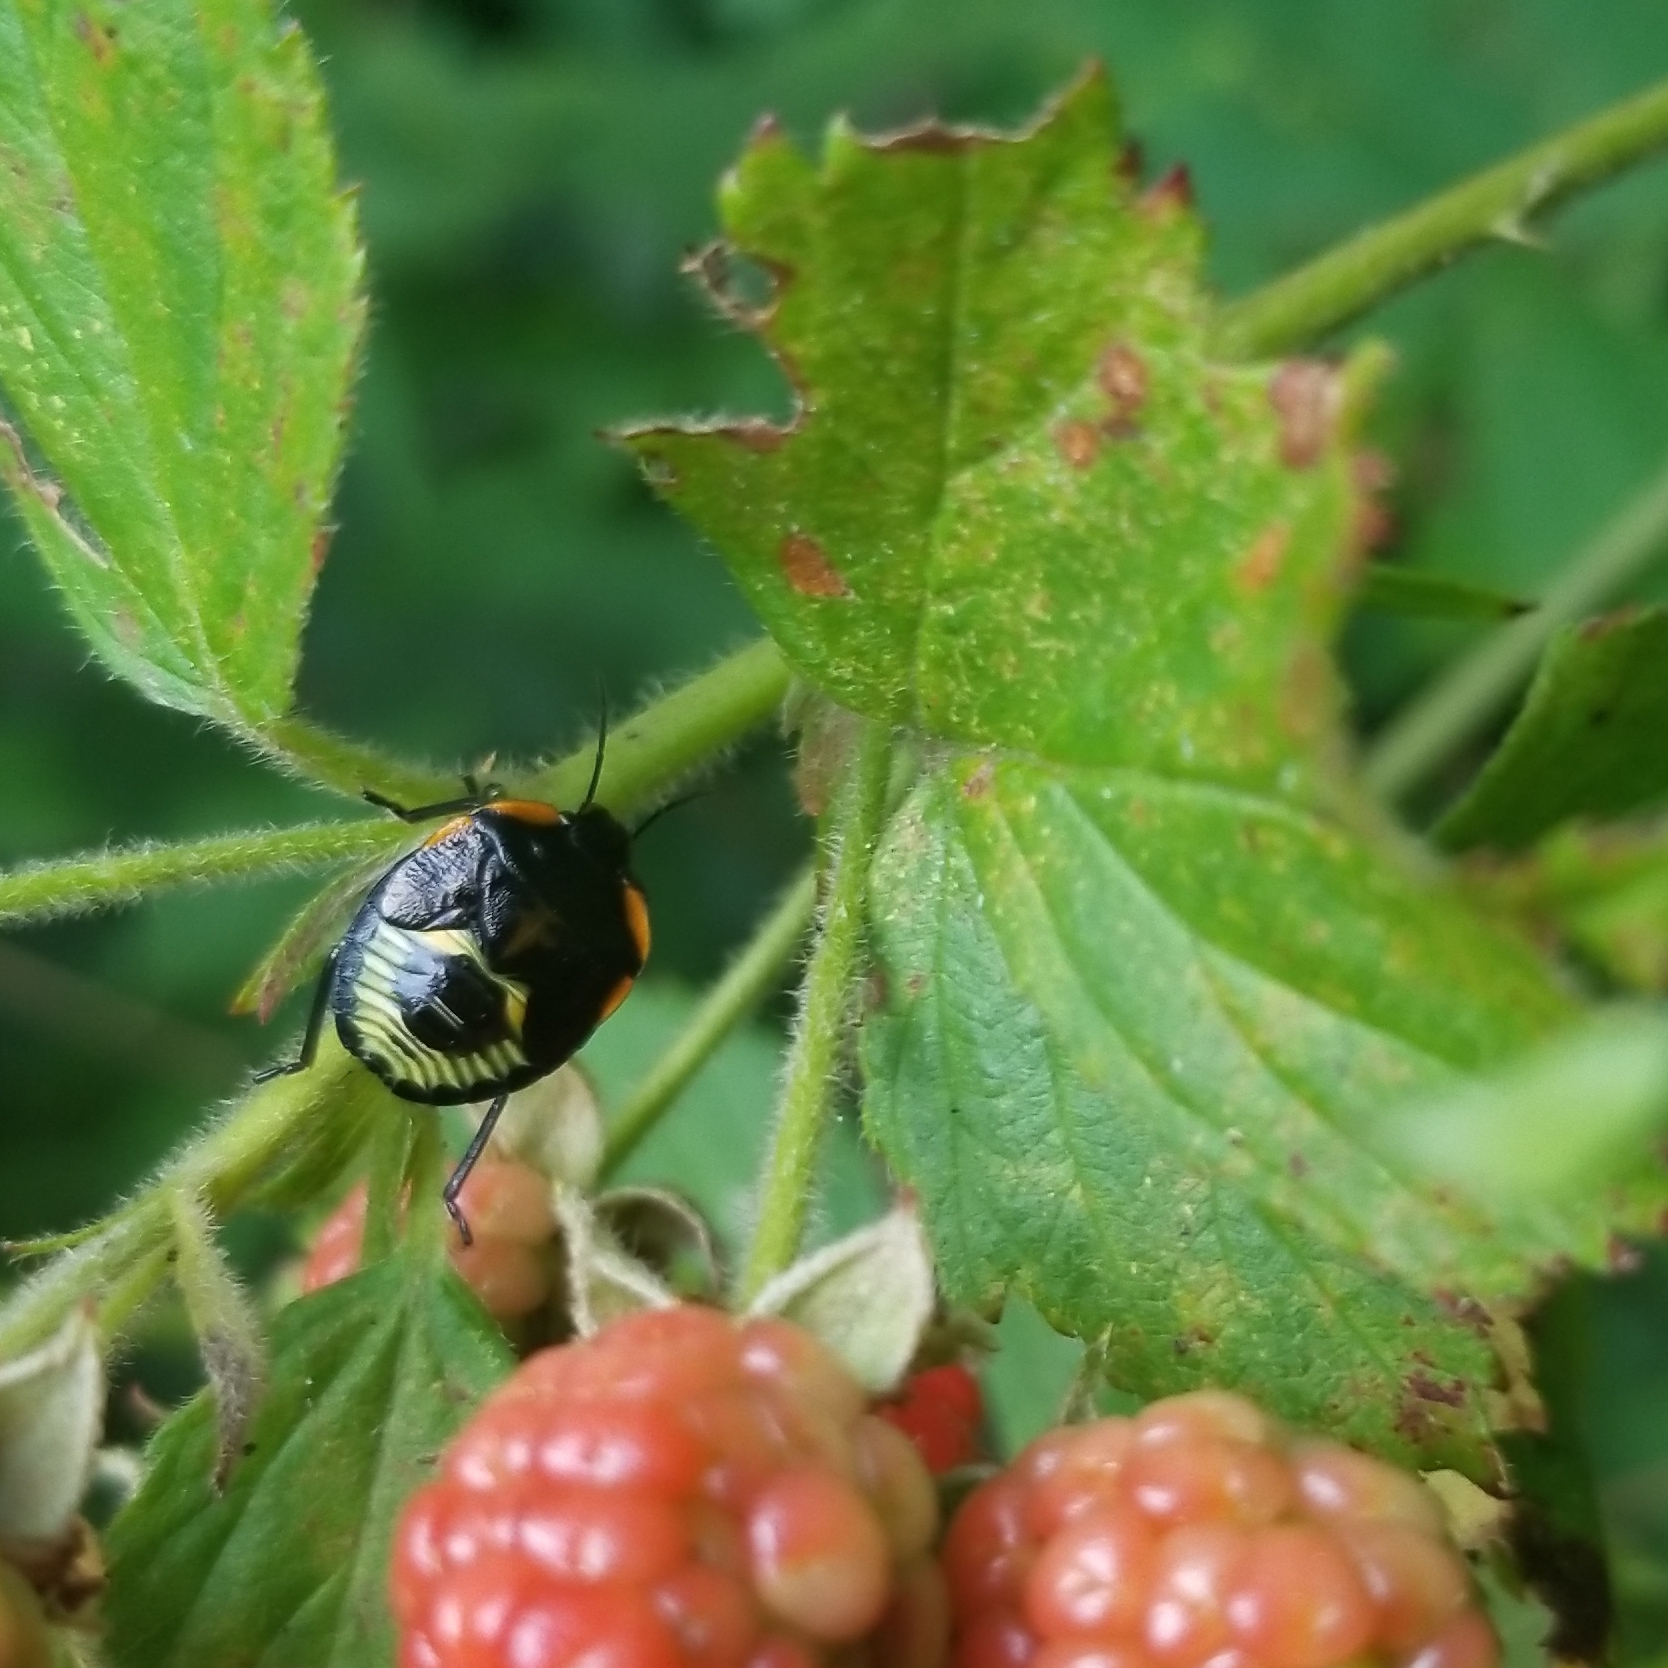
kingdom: Animalia
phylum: Arthropoda
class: Insecta
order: Hemiptera
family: Pentatomidae
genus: Chinavia
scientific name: Chinavia hilaris
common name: Green stink bug
